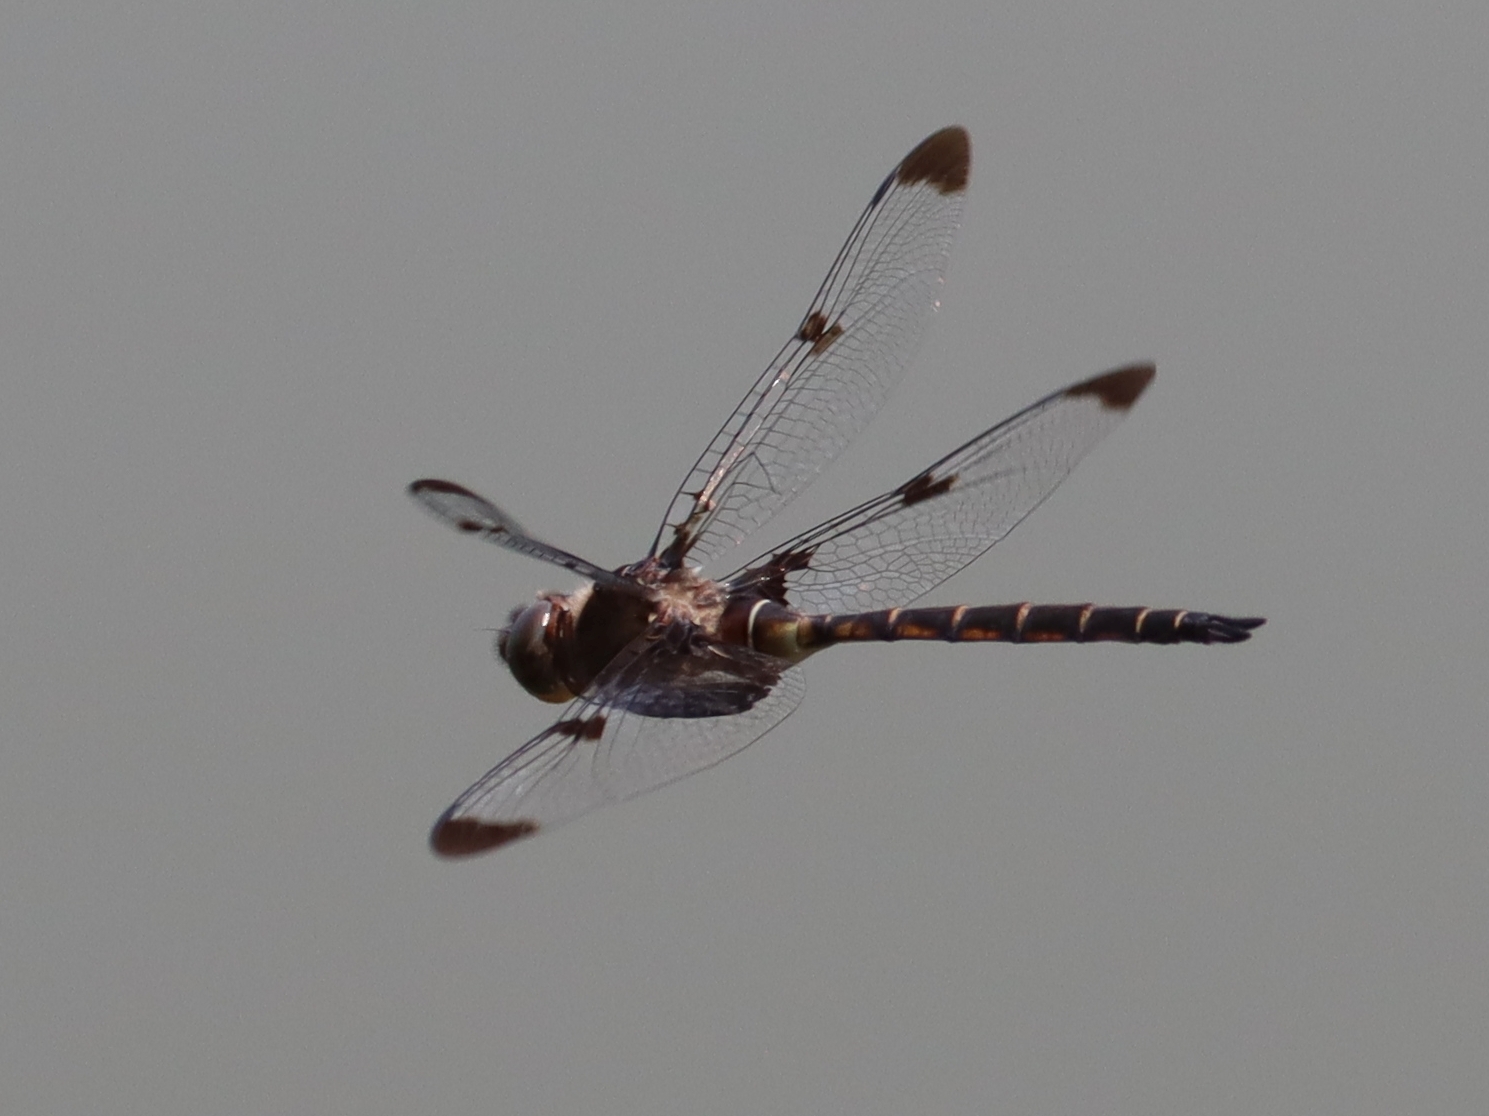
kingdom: Animalia
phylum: Arthropoda
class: Insecta
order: Odonata
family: Corduliidae
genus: Epitheca
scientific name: Epitheca princeps
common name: Prince baskettail
